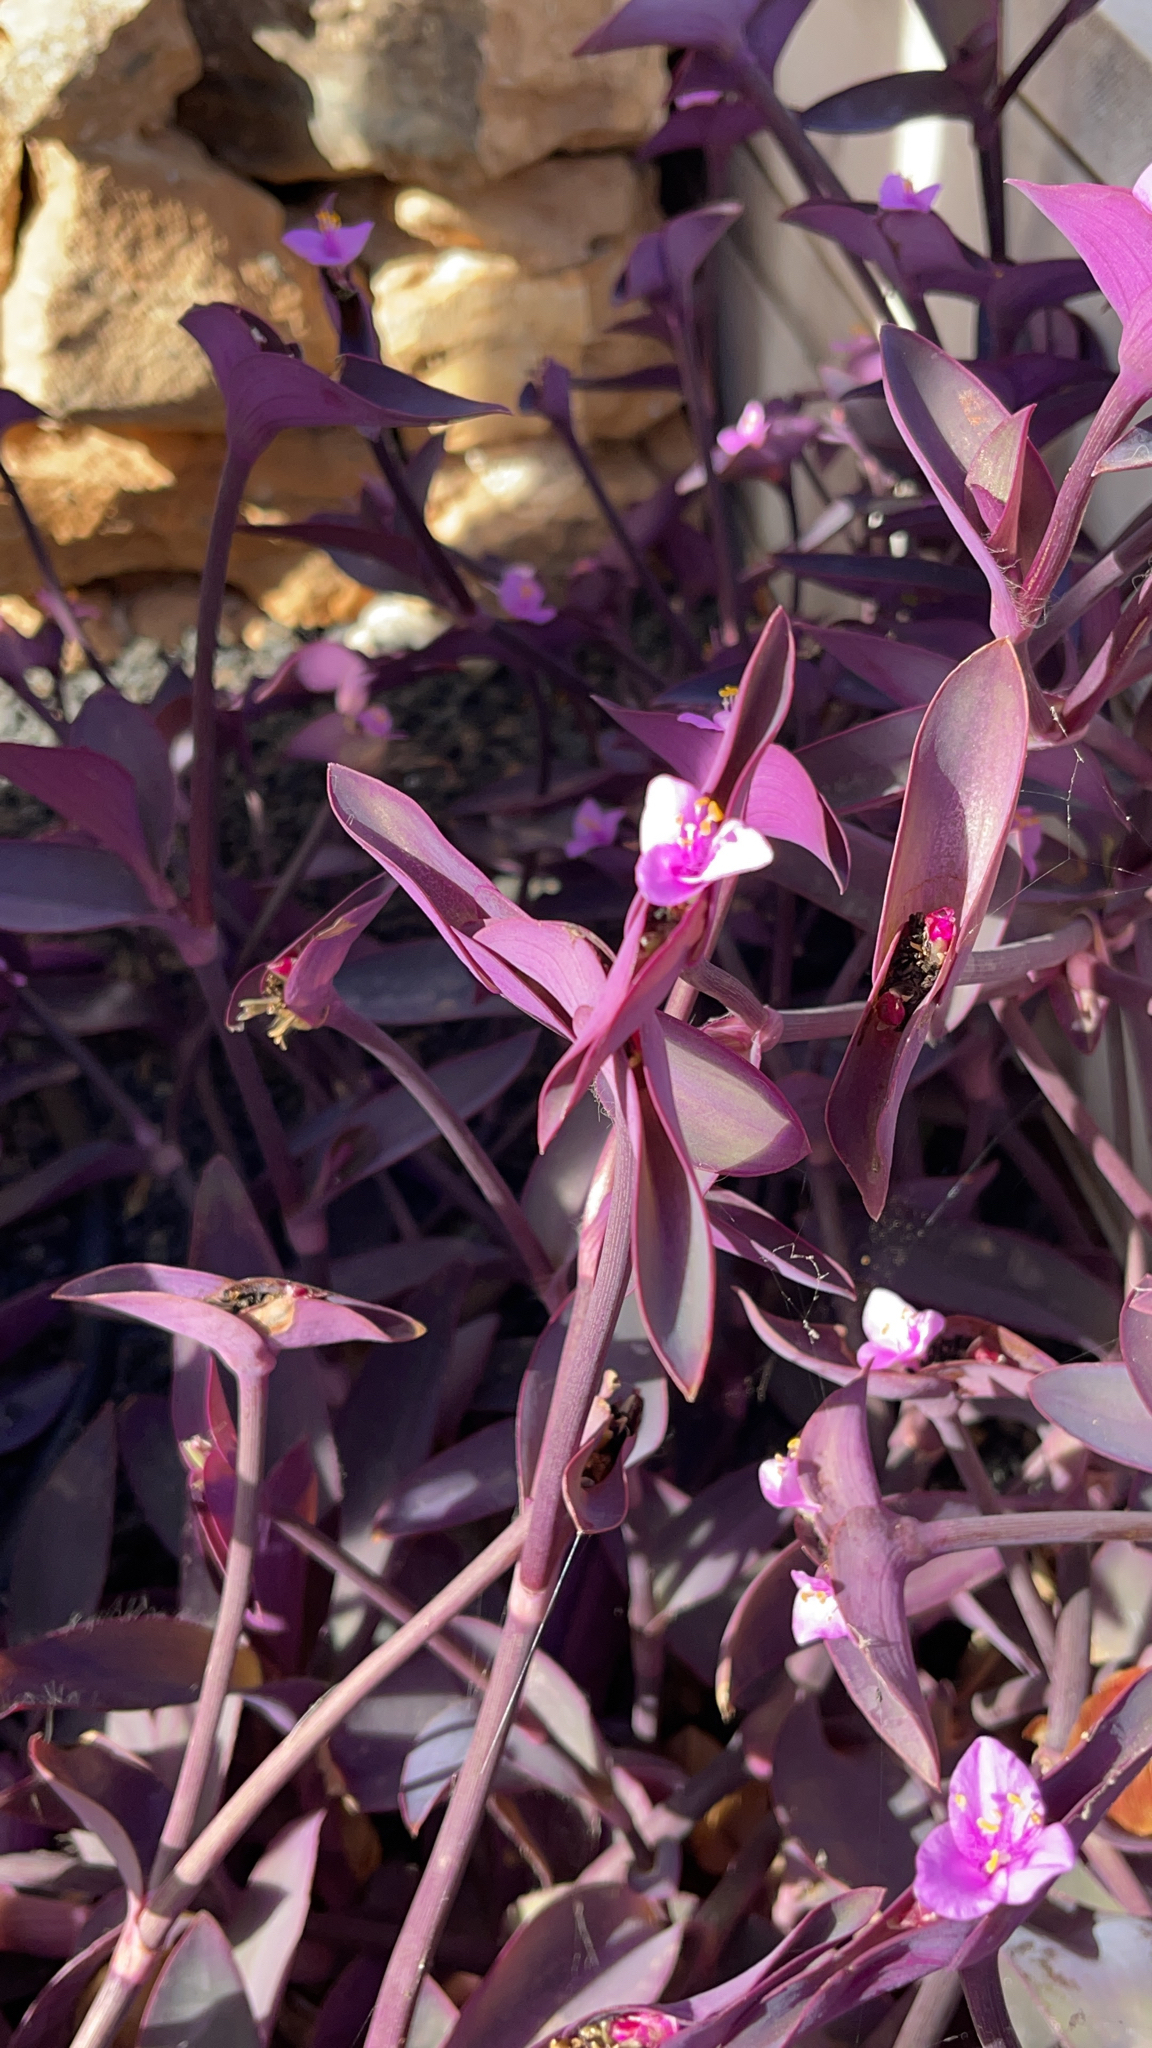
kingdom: Plantae
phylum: Tracheophyta
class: Liliopsida
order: Commelinales
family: Commelinaceae
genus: Tradescantia
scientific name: Tradescantia pallida
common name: Purpleheart
